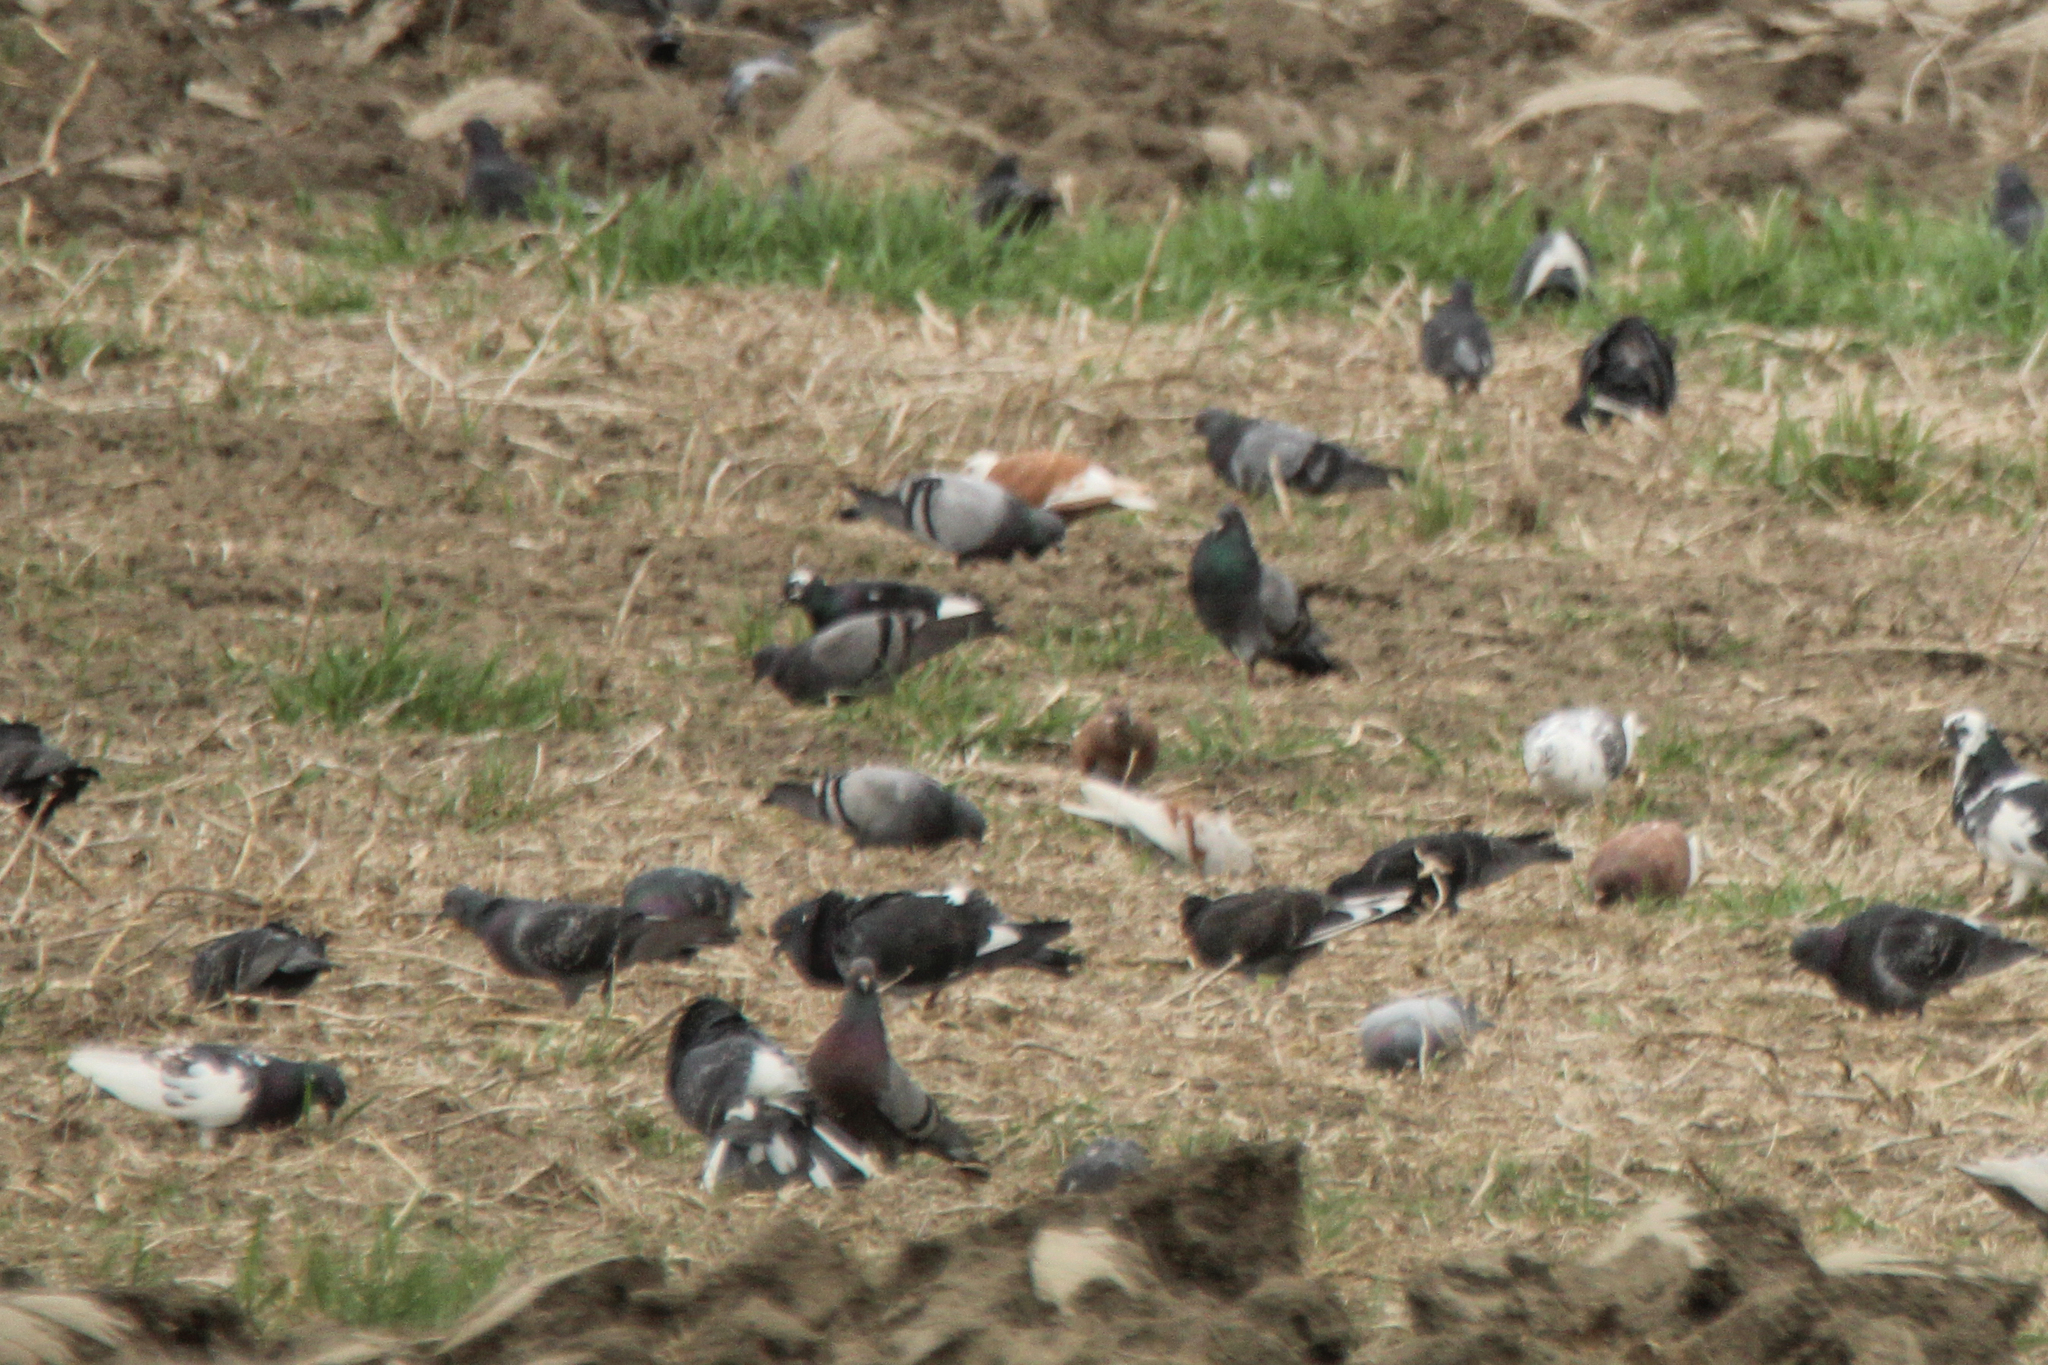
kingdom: Animalia
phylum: Chordata
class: Aves
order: Columbiformes
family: Columbidae
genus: Columba
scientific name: Columba livia
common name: Rock pigeon
